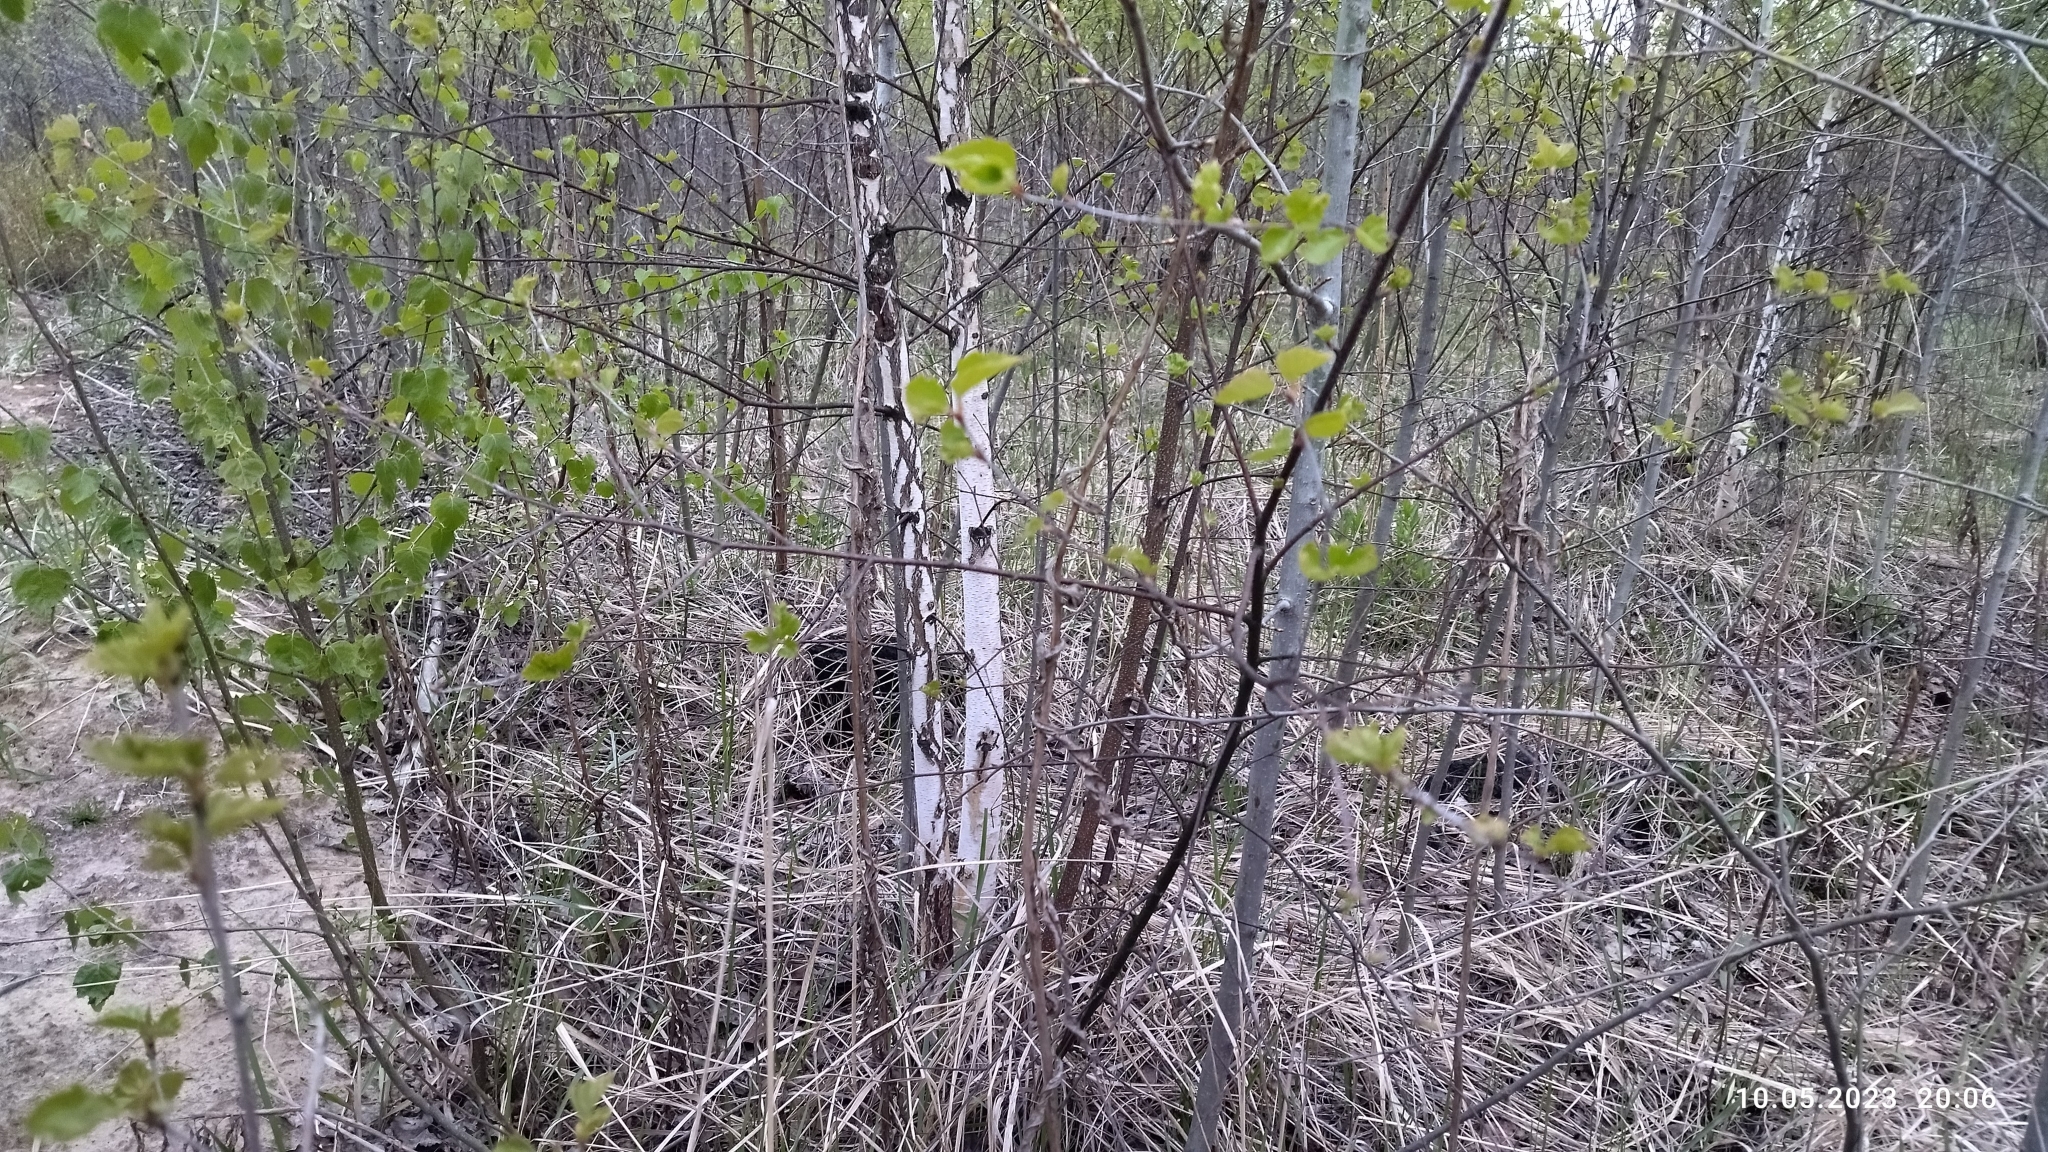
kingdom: Plantae
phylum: Tracheophyta
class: Magnoliopsida
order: Fagales
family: Betulaceae
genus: Betula
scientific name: Betula pendula
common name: Silver birch
